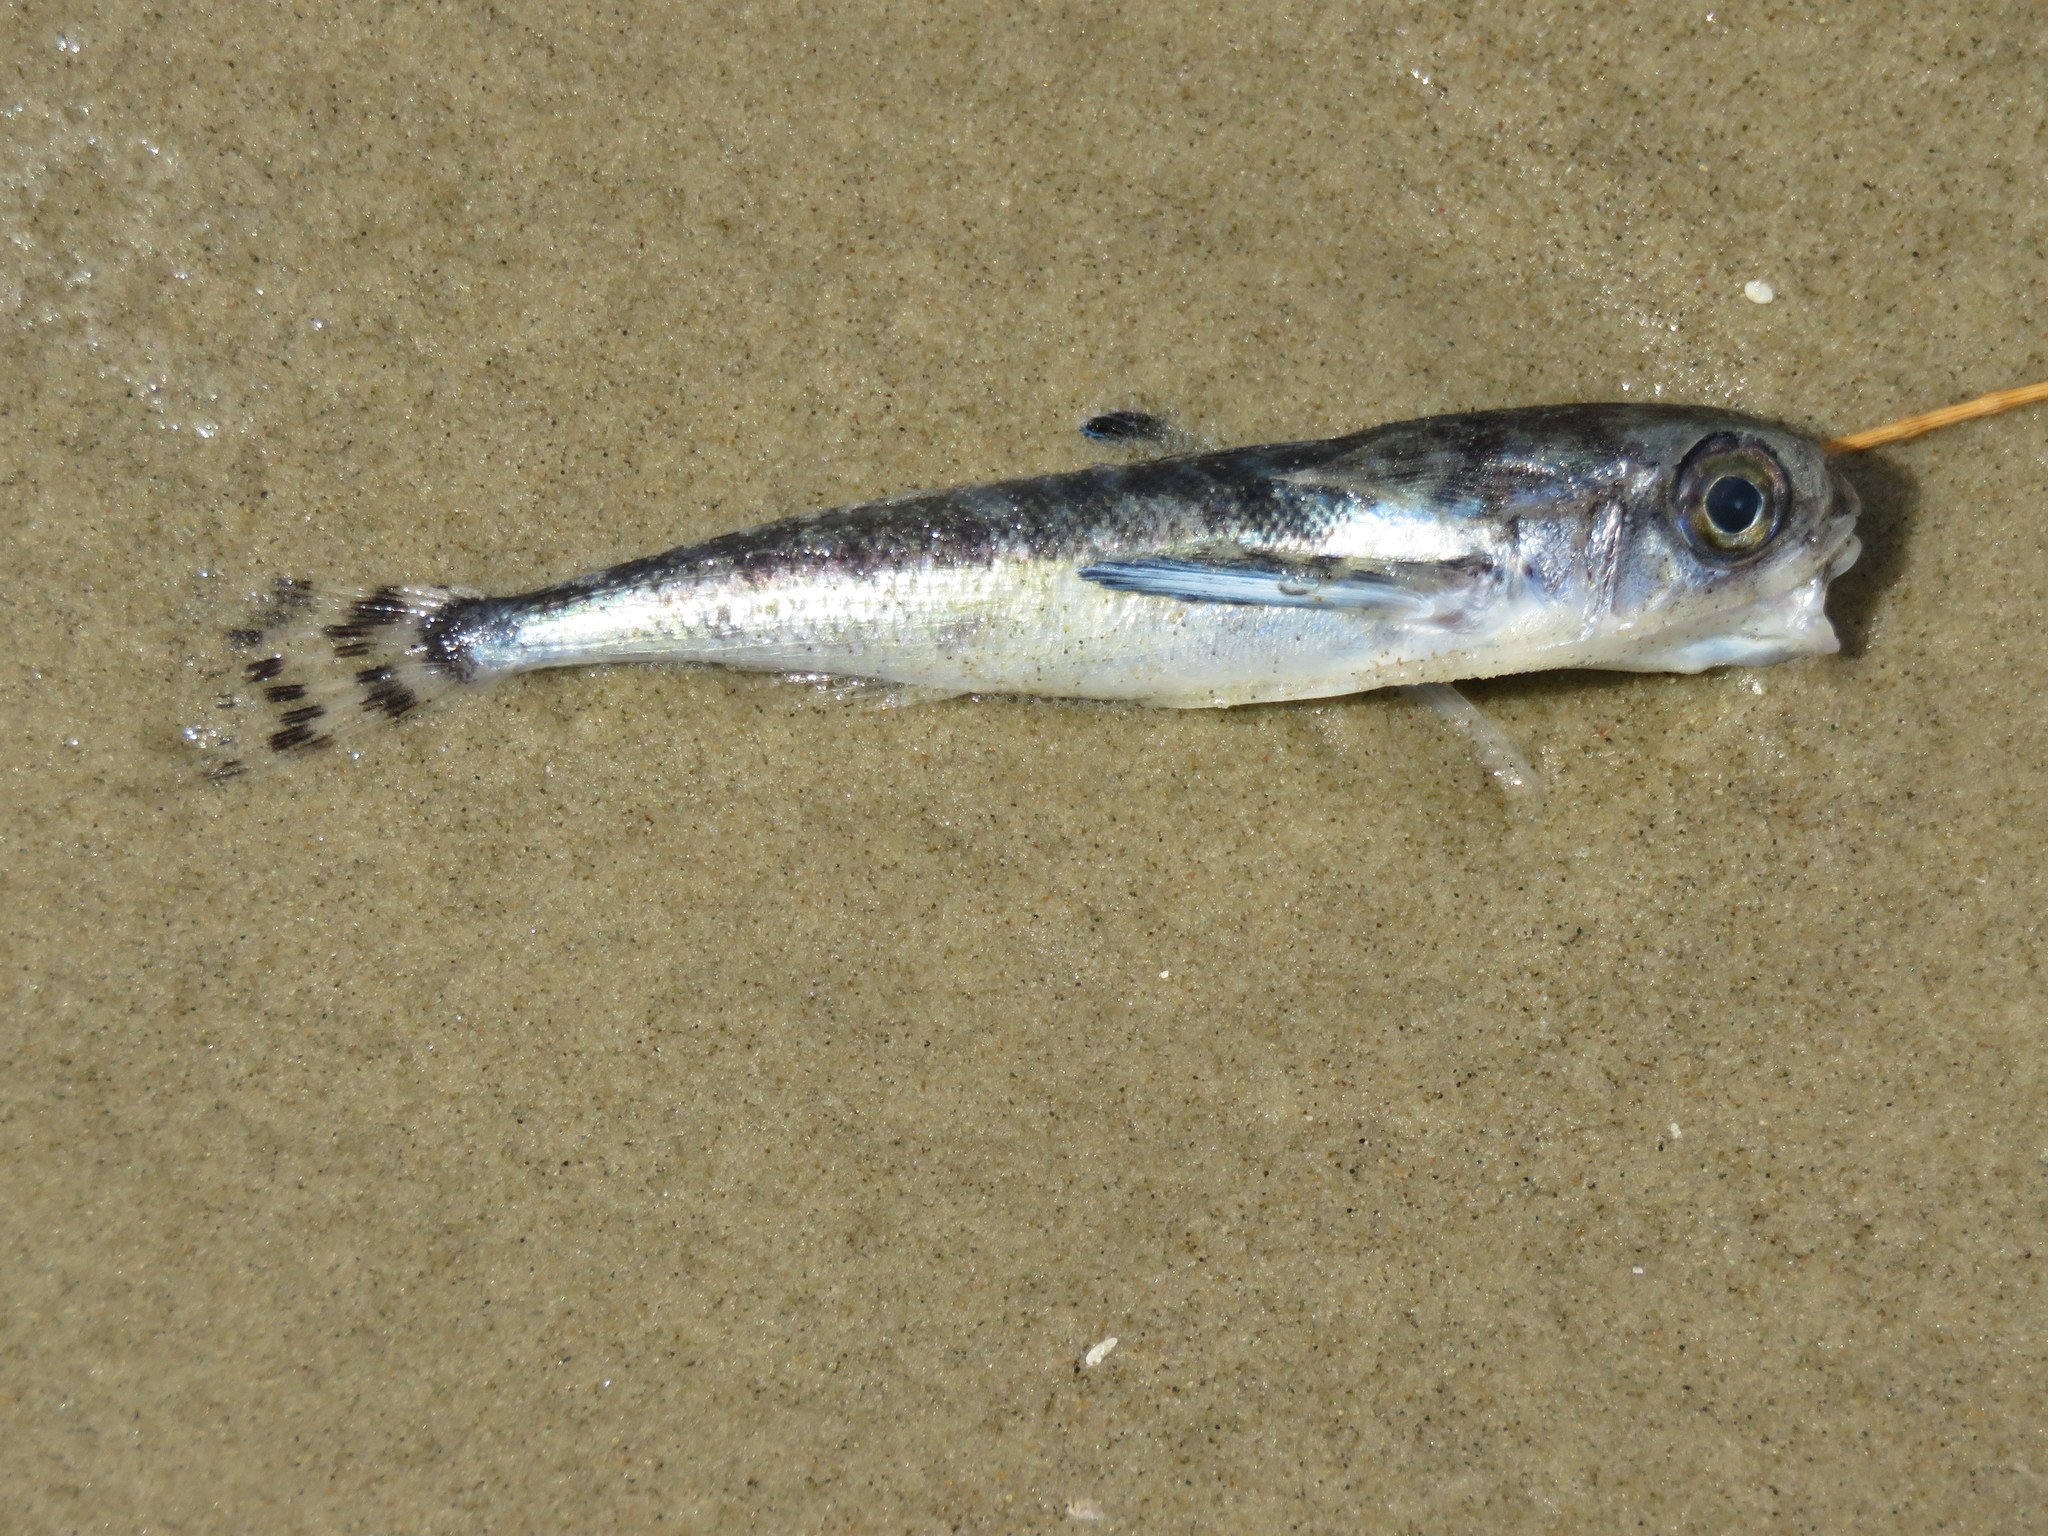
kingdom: Animalia
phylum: Chordata
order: Scorpaeniformes
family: Dactylopteridae
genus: Dactylopterus
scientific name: Dactylopterus volitans
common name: Flying gurnard
